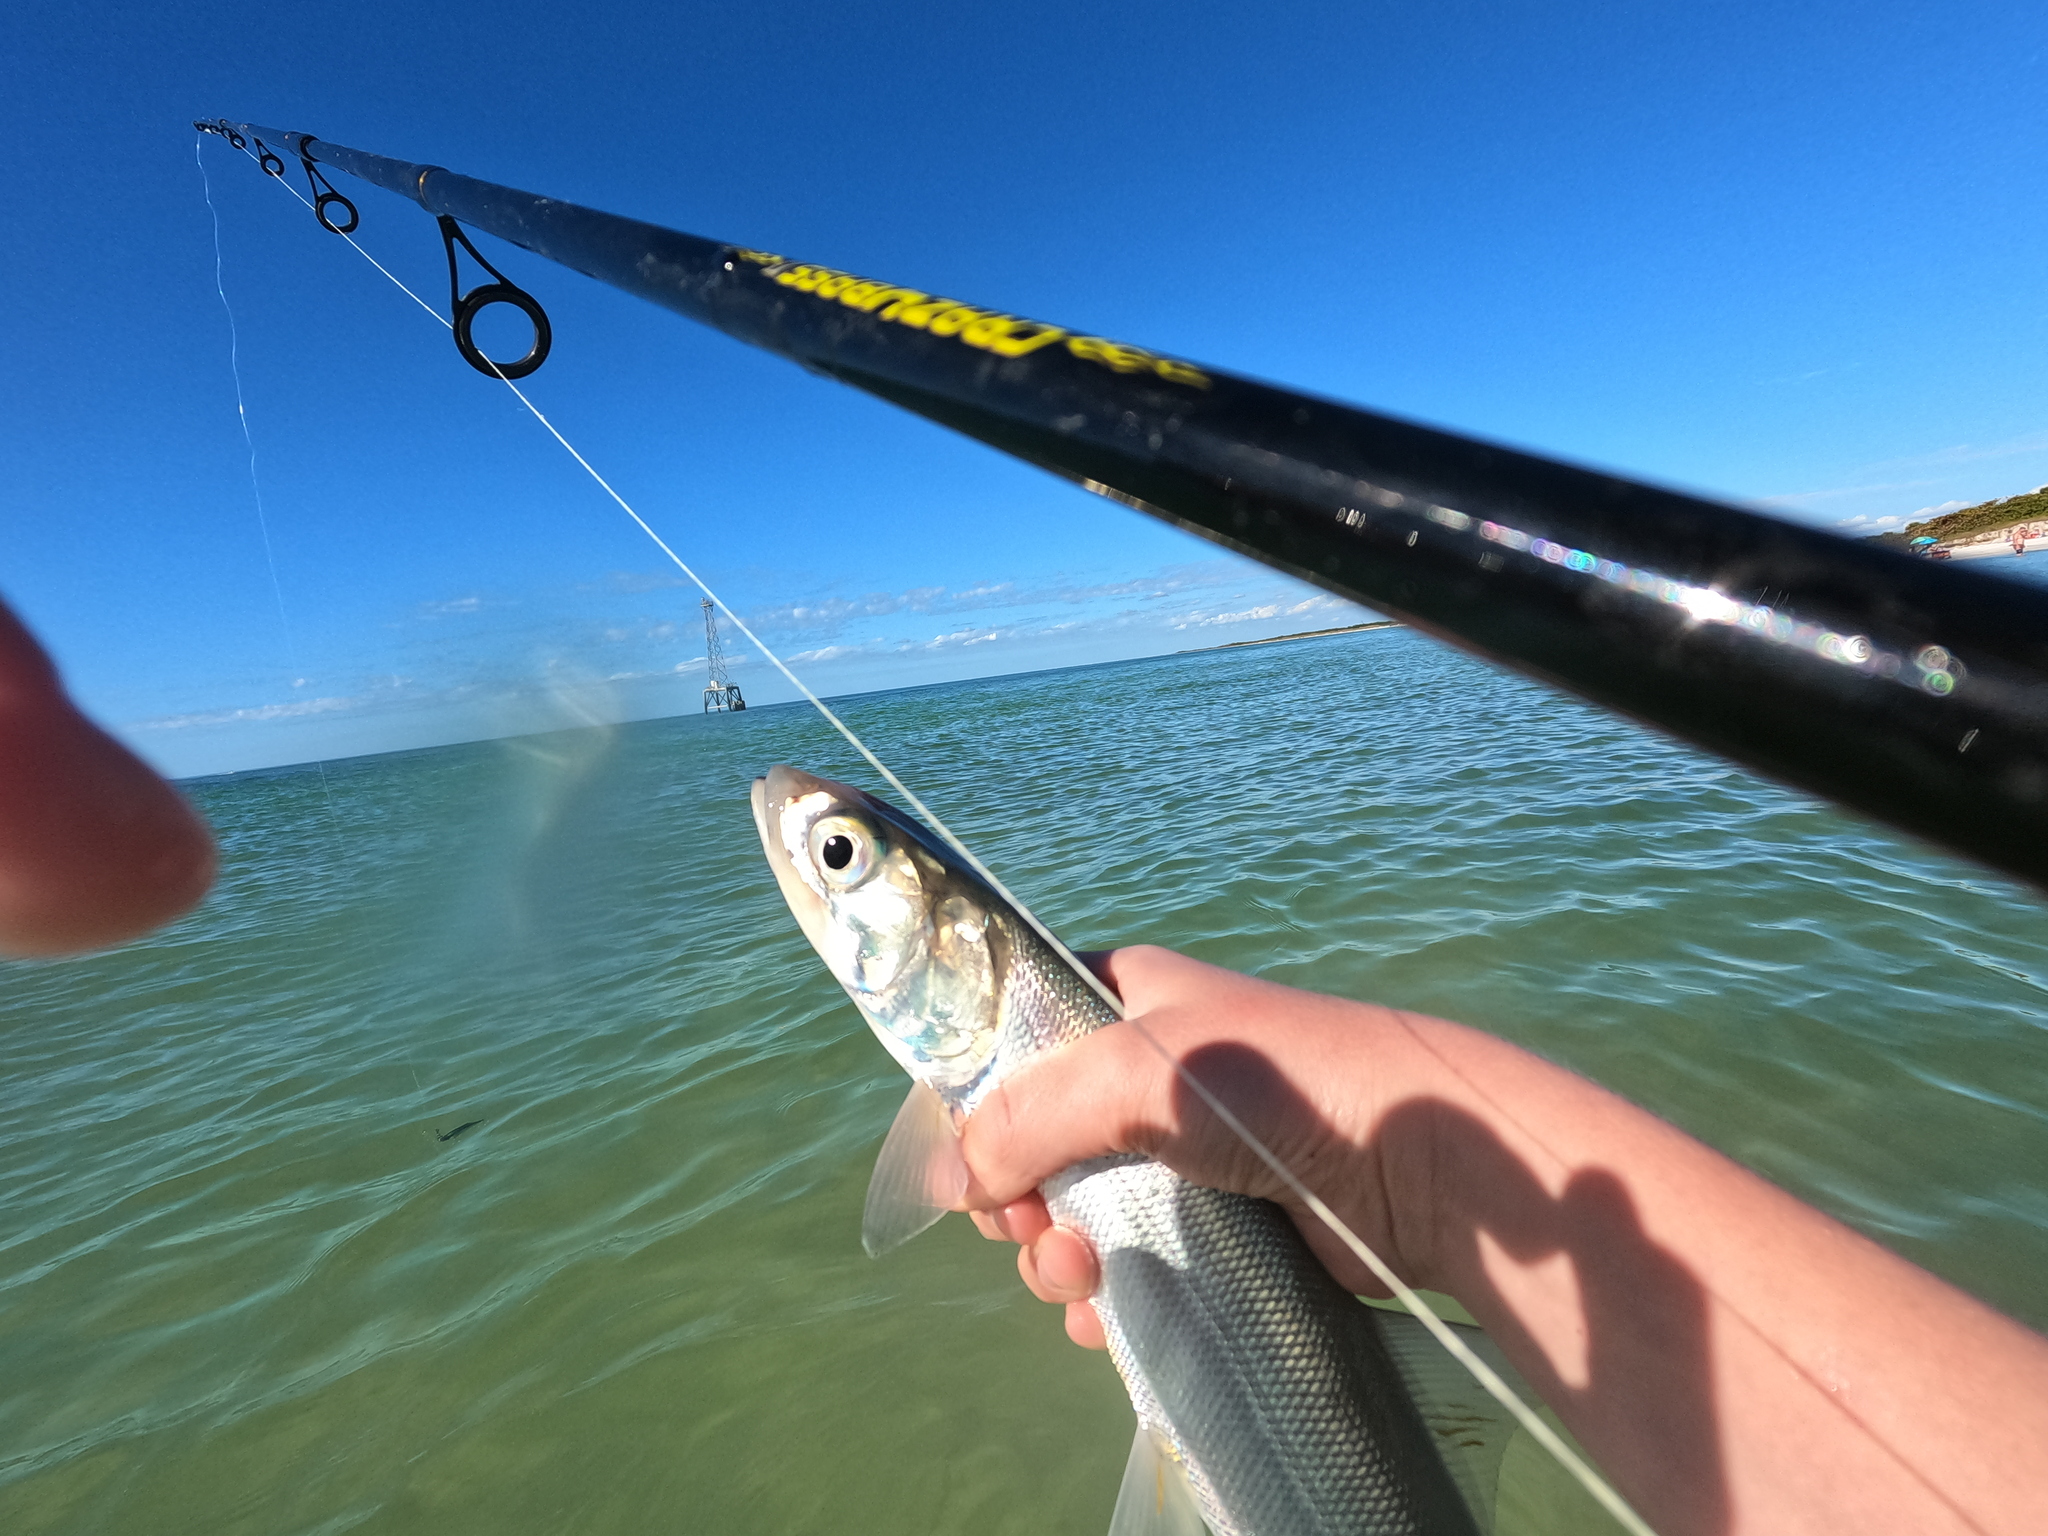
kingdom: Animalia
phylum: Chordata
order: Elopiformes
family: Elopidae
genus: Elops
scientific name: Elops saurus
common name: Ladyfish
